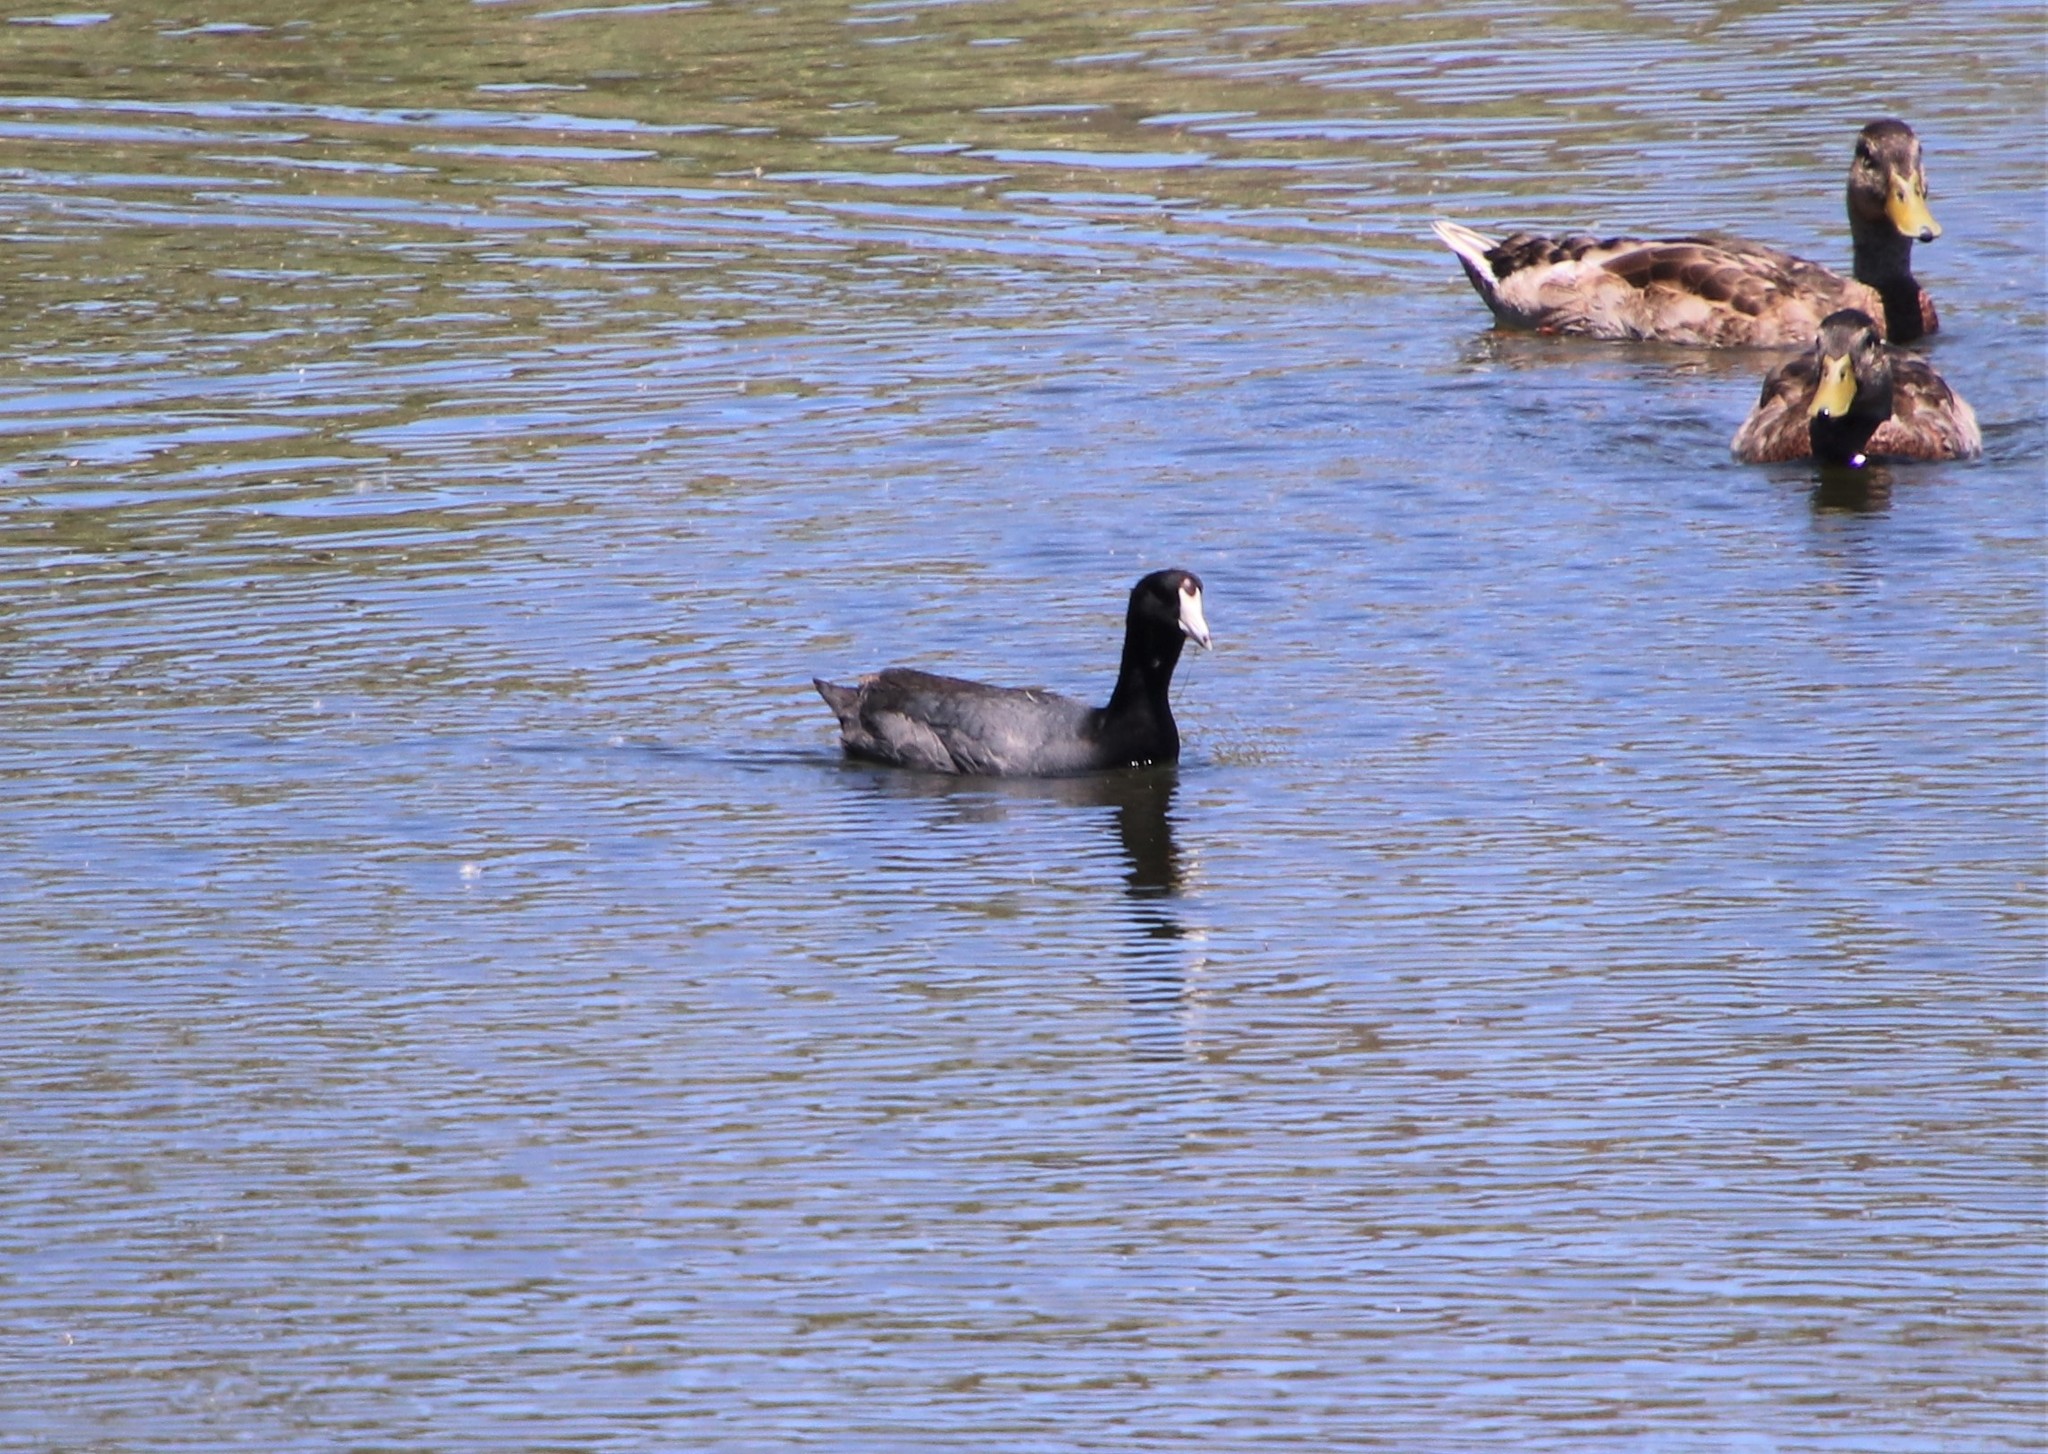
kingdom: Animalia
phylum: Chordata
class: Aves
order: Gruiformes
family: Rallidae
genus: Fulica
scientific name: Fulica americana
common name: American coot
